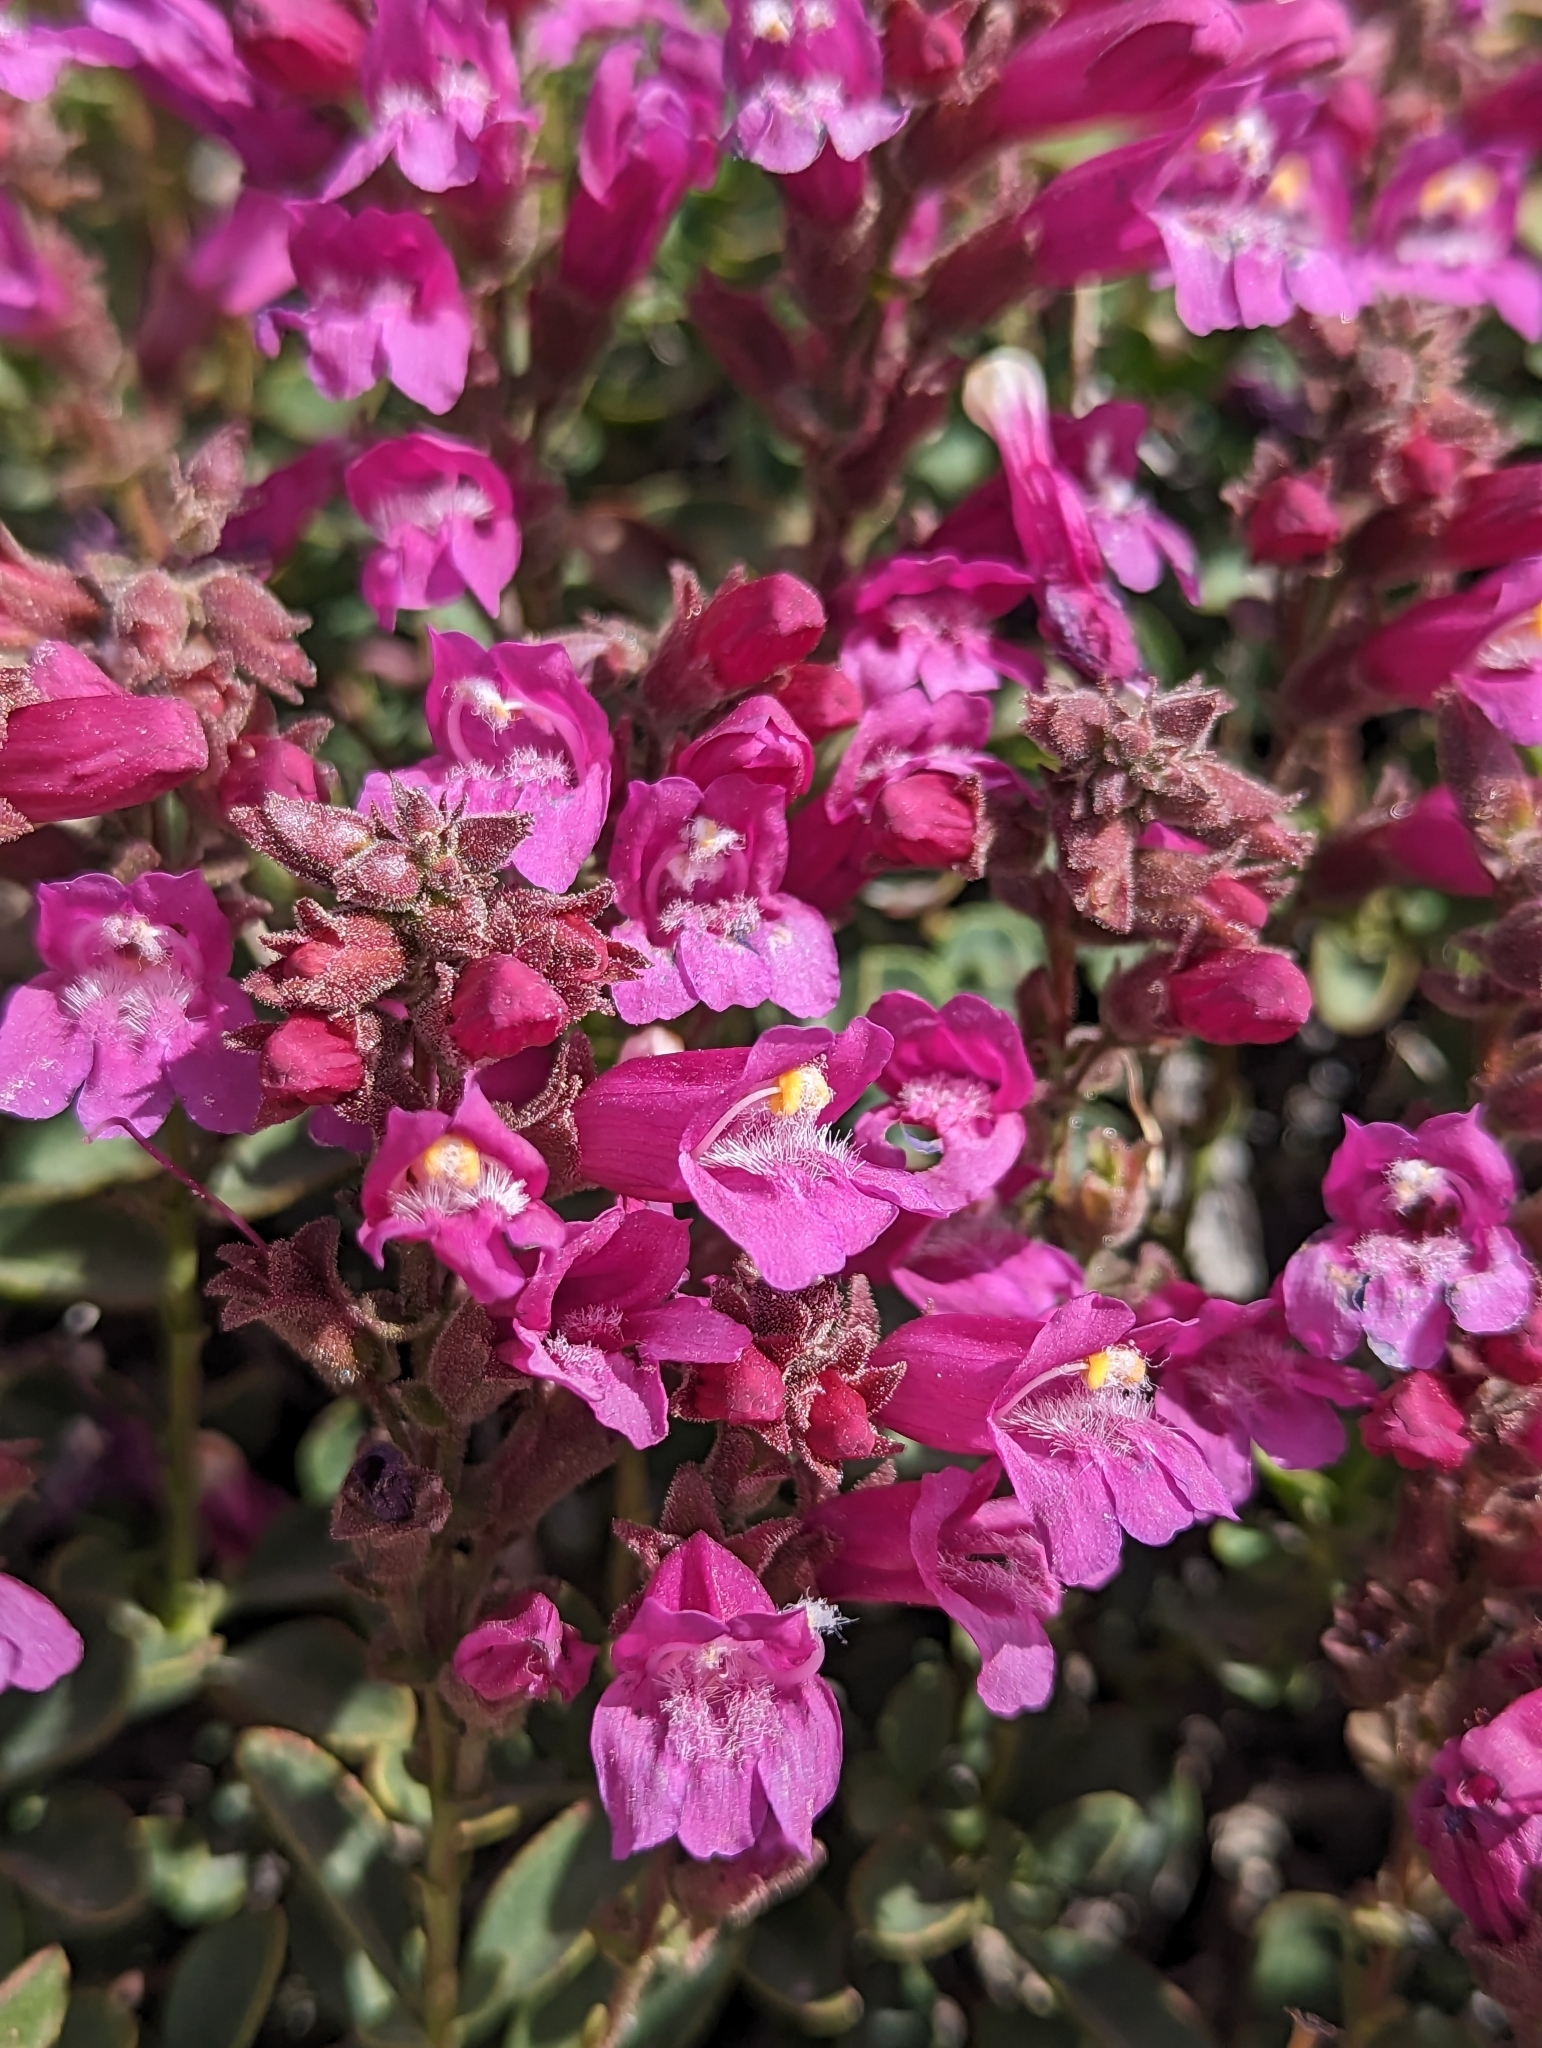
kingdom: Plantae
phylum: Tracheophyta
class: Magnoliopsida
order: Lamiales
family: Plantaginaceae
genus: Penstemon
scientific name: Penstemon newberryi
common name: Mountain-pride
